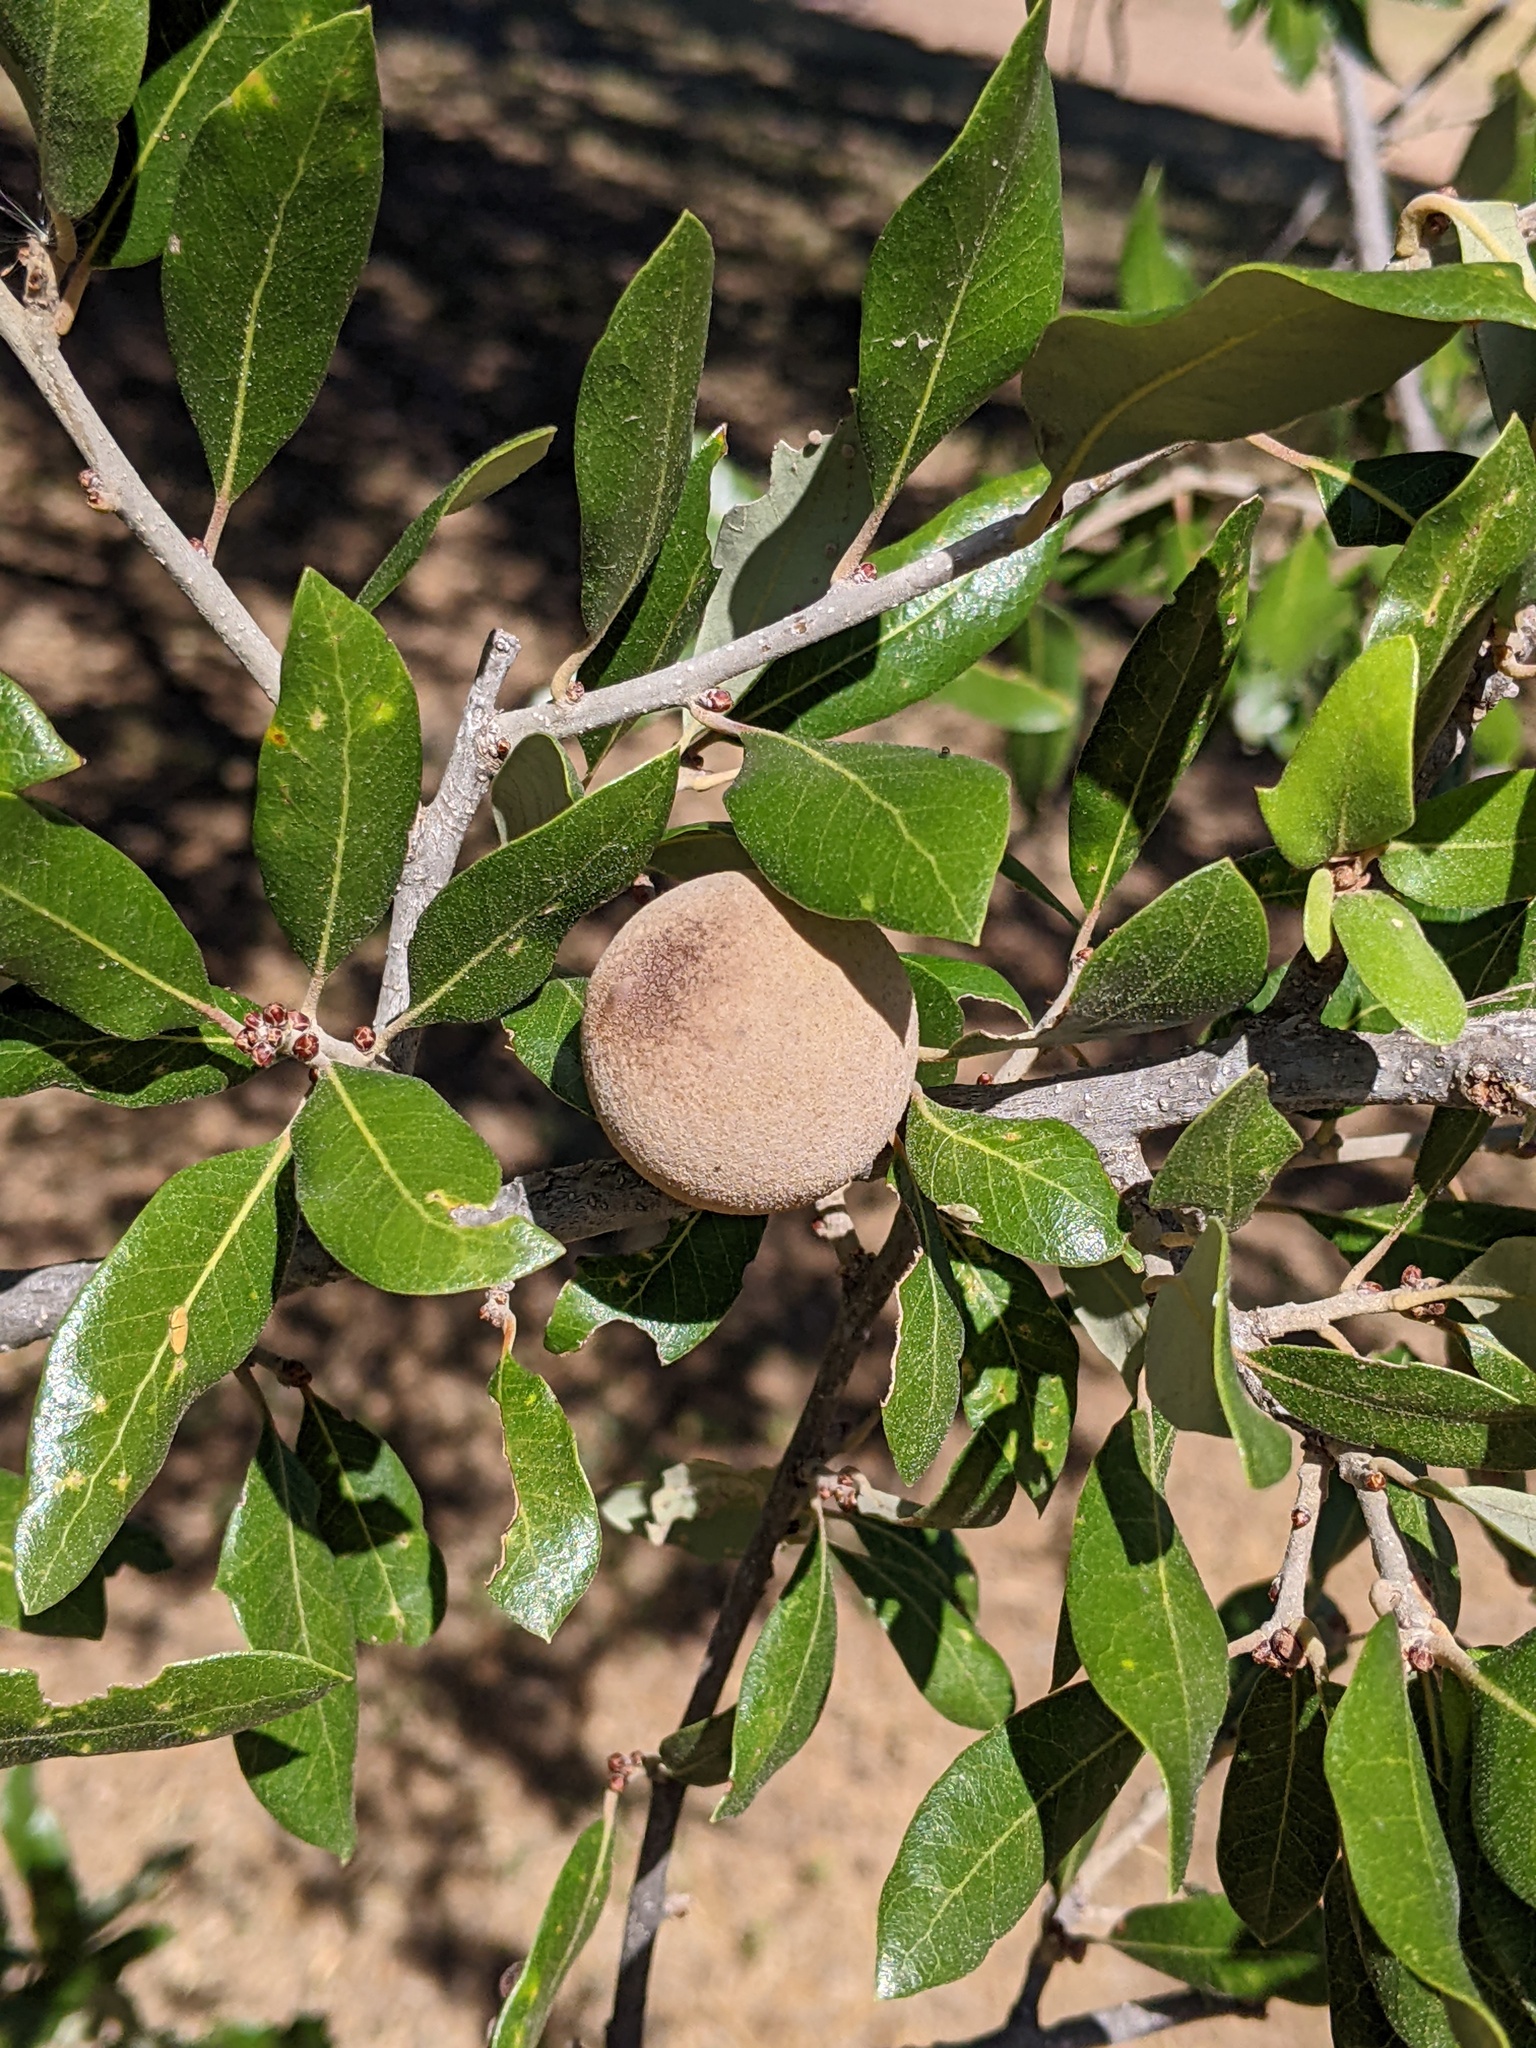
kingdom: Animalia
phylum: Arthropoda
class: Insecta
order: Hymenoptera
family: Cynipidae
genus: Disholcaspis
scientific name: Disholcaspis
